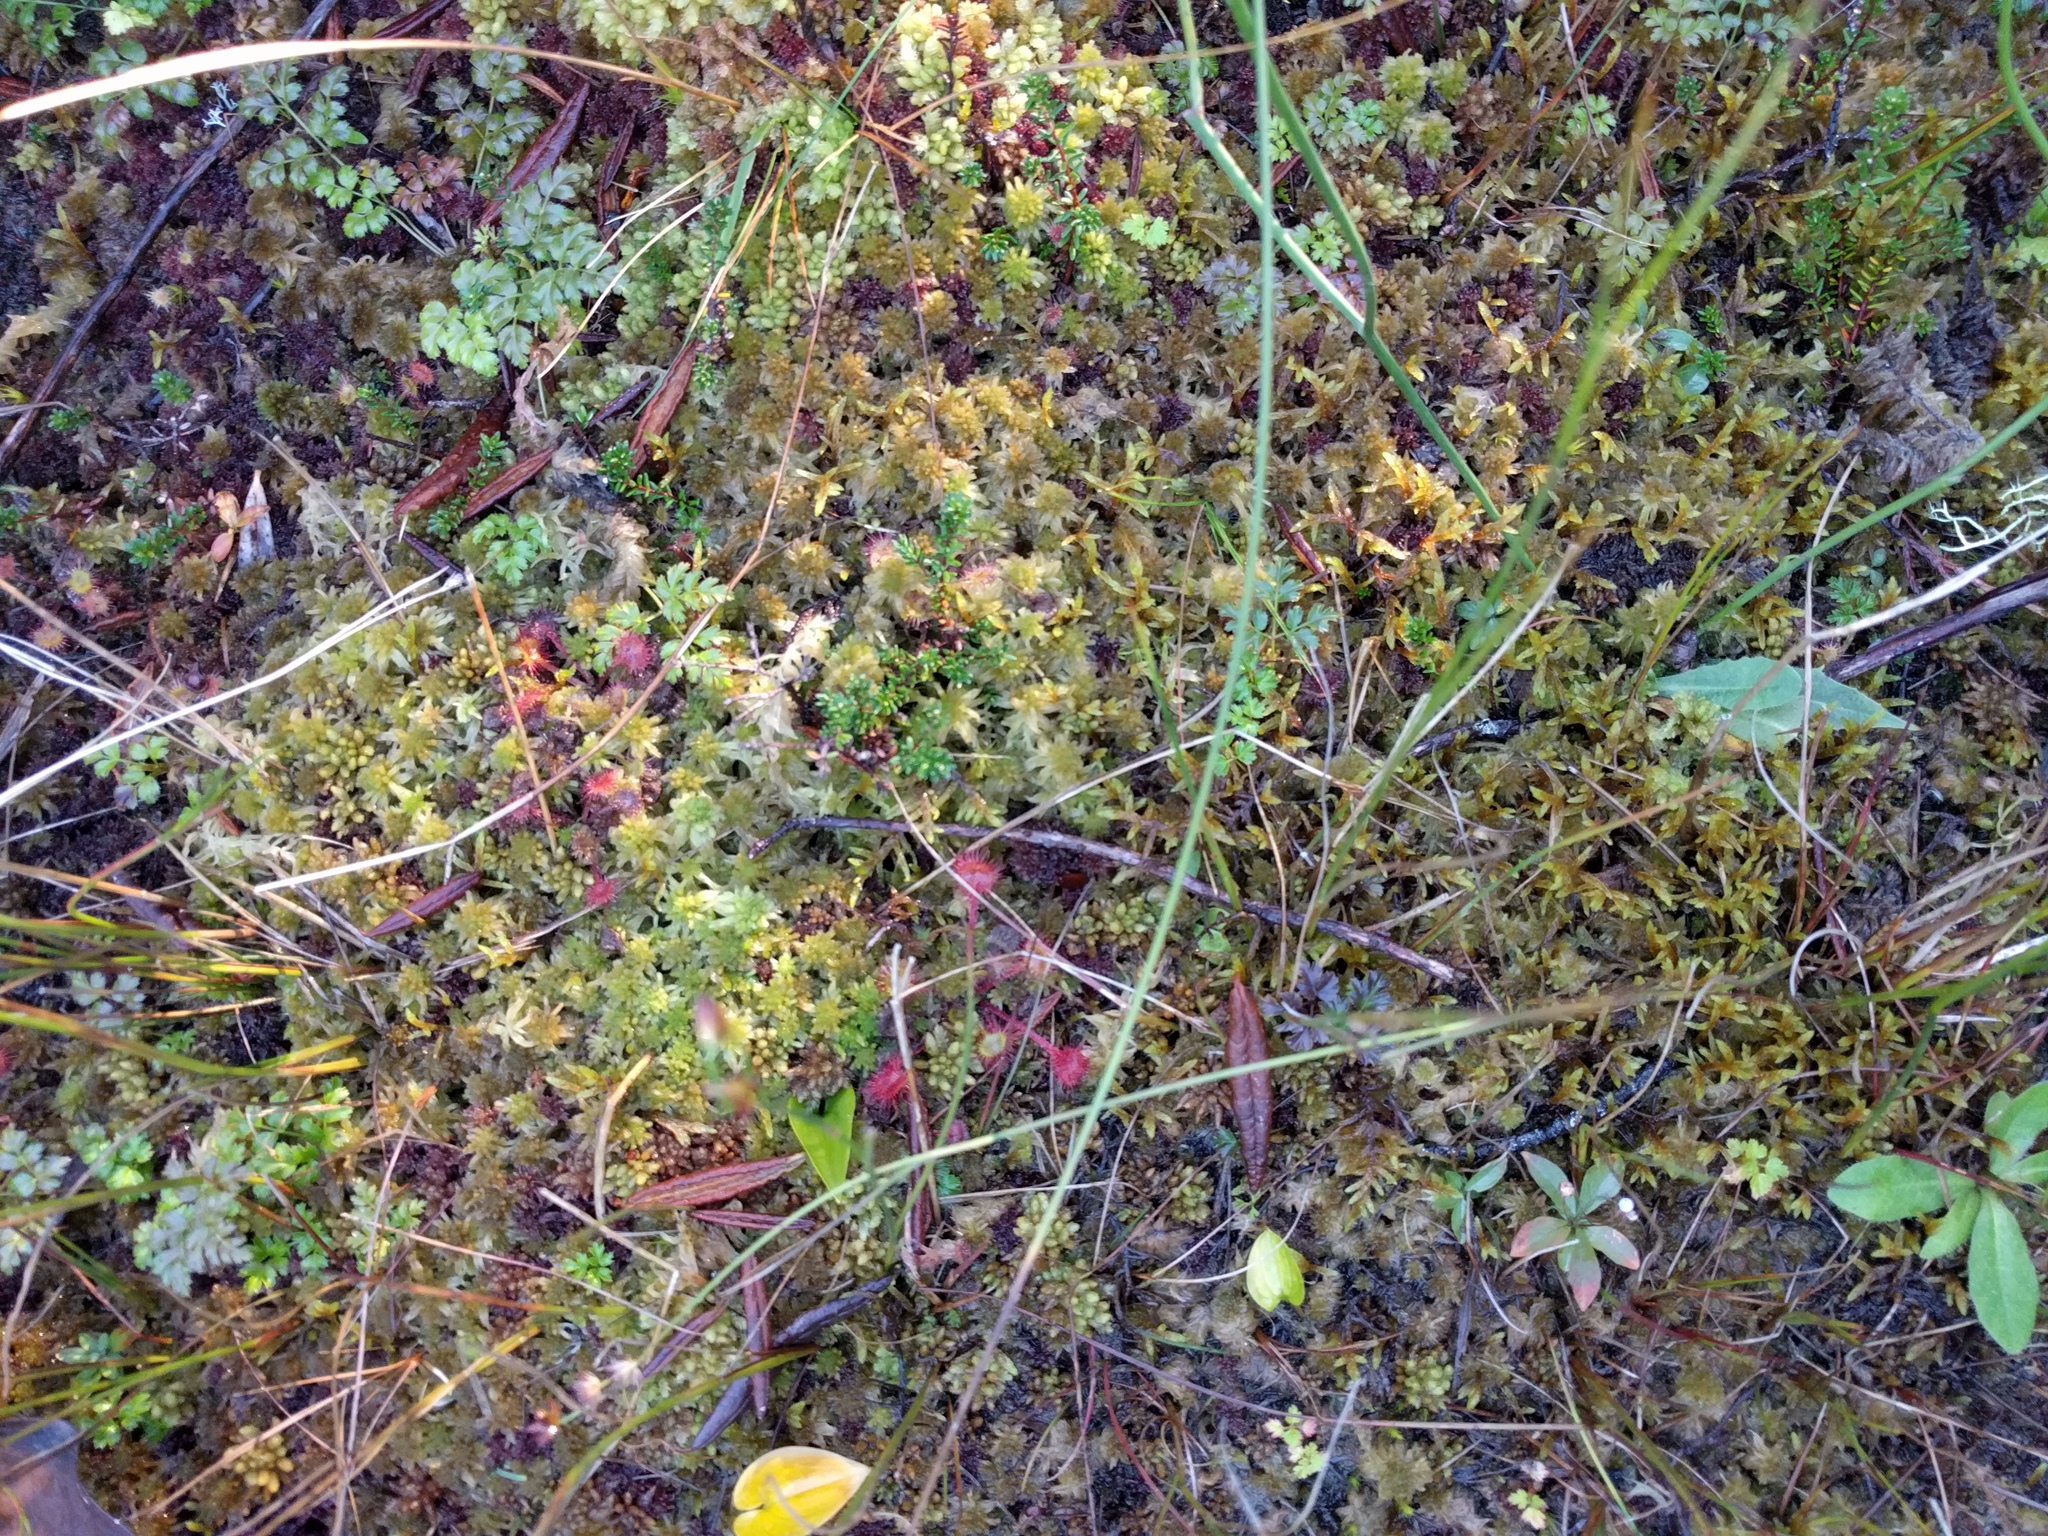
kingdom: Plantae
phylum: Tracheophyta
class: Magnoliopsida
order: Caryophyllales
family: Droseraceae
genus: Drosera
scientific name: Drosera rotundifolia
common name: Round-leaved sundew
